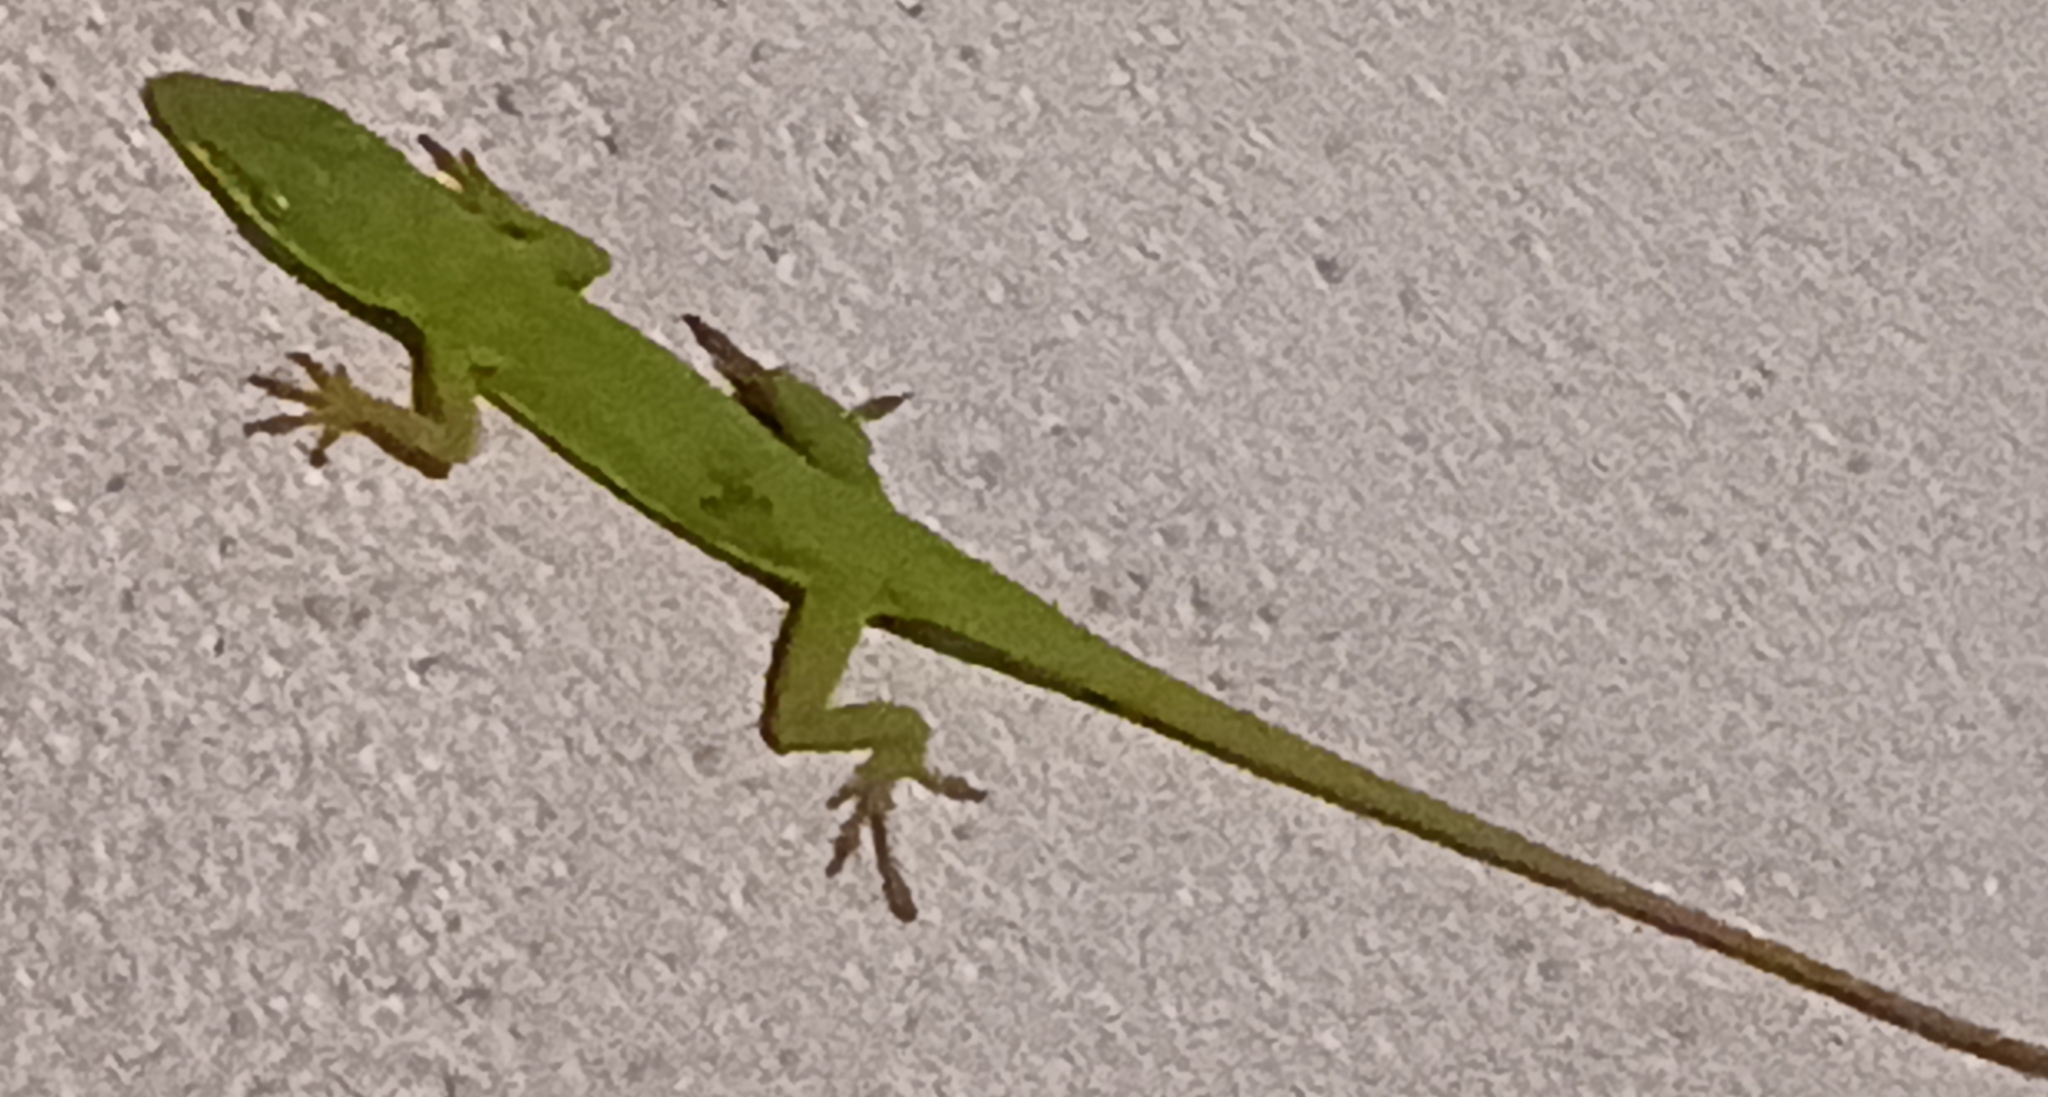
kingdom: Animalia
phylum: Chordata
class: Squamata
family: Dactyloidae
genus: Anolis
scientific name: Anolis carolinensis
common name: Green anole
